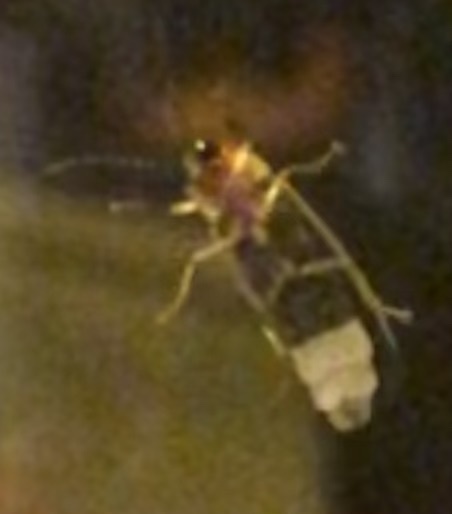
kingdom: Animalia
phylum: Arthropoda
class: Insecta
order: Coleoptera
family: Lampyridae
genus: Photinus
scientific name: Photinus pyralis
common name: Big dipper firefly
